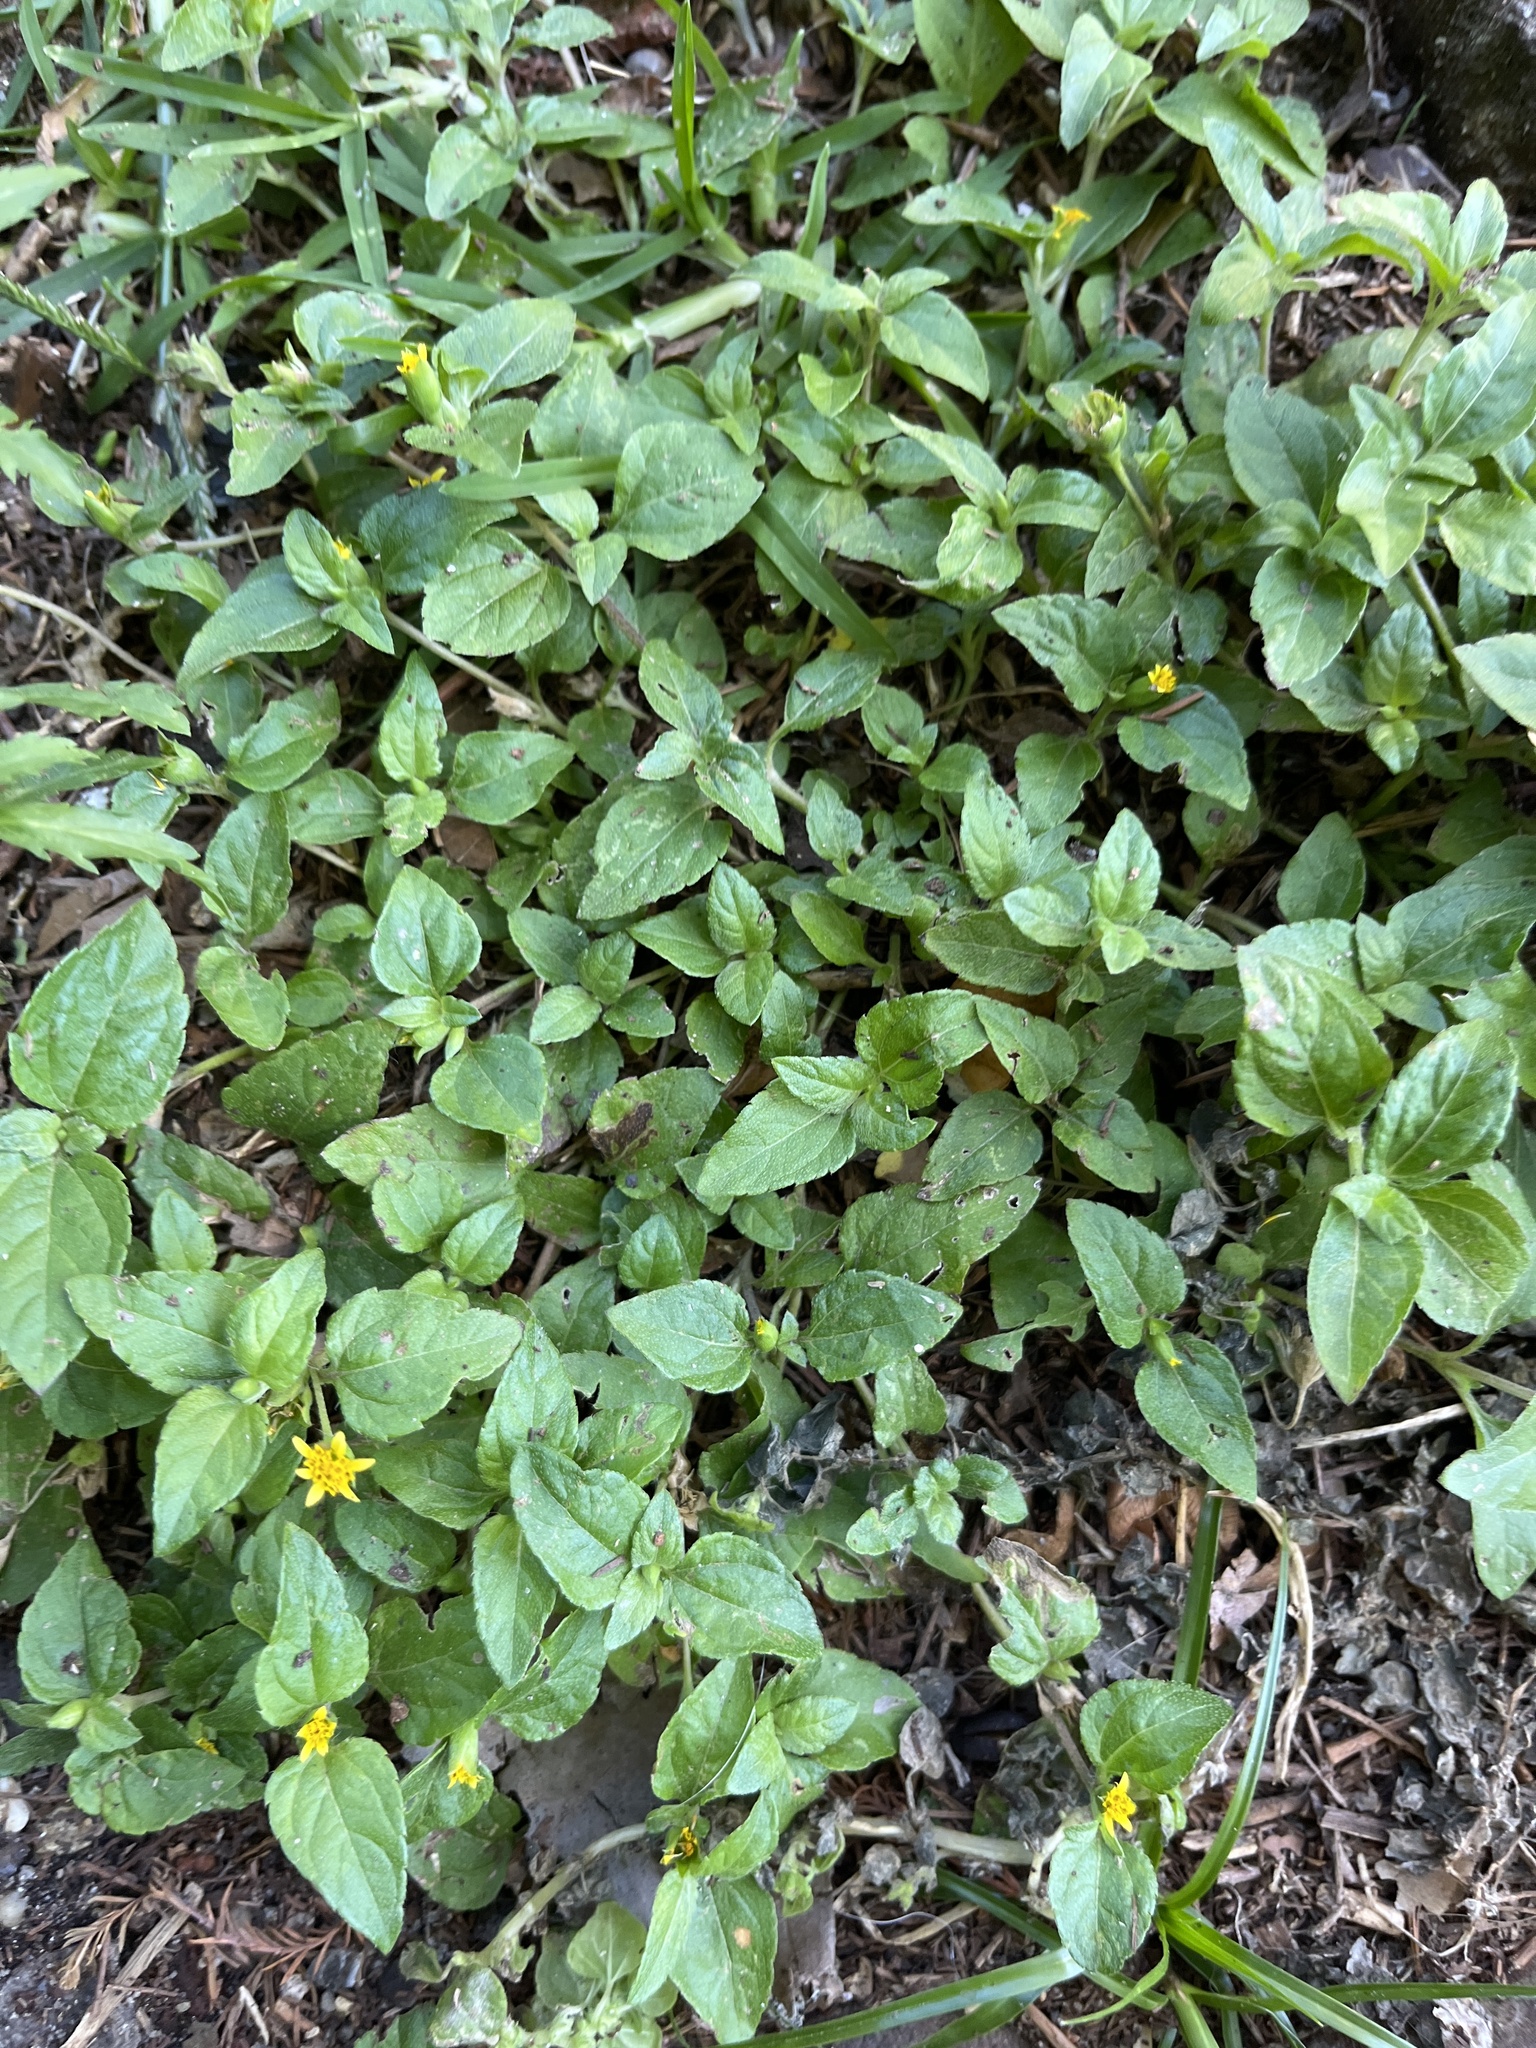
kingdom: Plantae
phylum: Tracheophyta
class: Magnoliopsida
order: Asterales
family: Asteraceae
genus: Calyptocarpus
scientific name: Calyptocarpus vialis
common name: Straggler daisy
